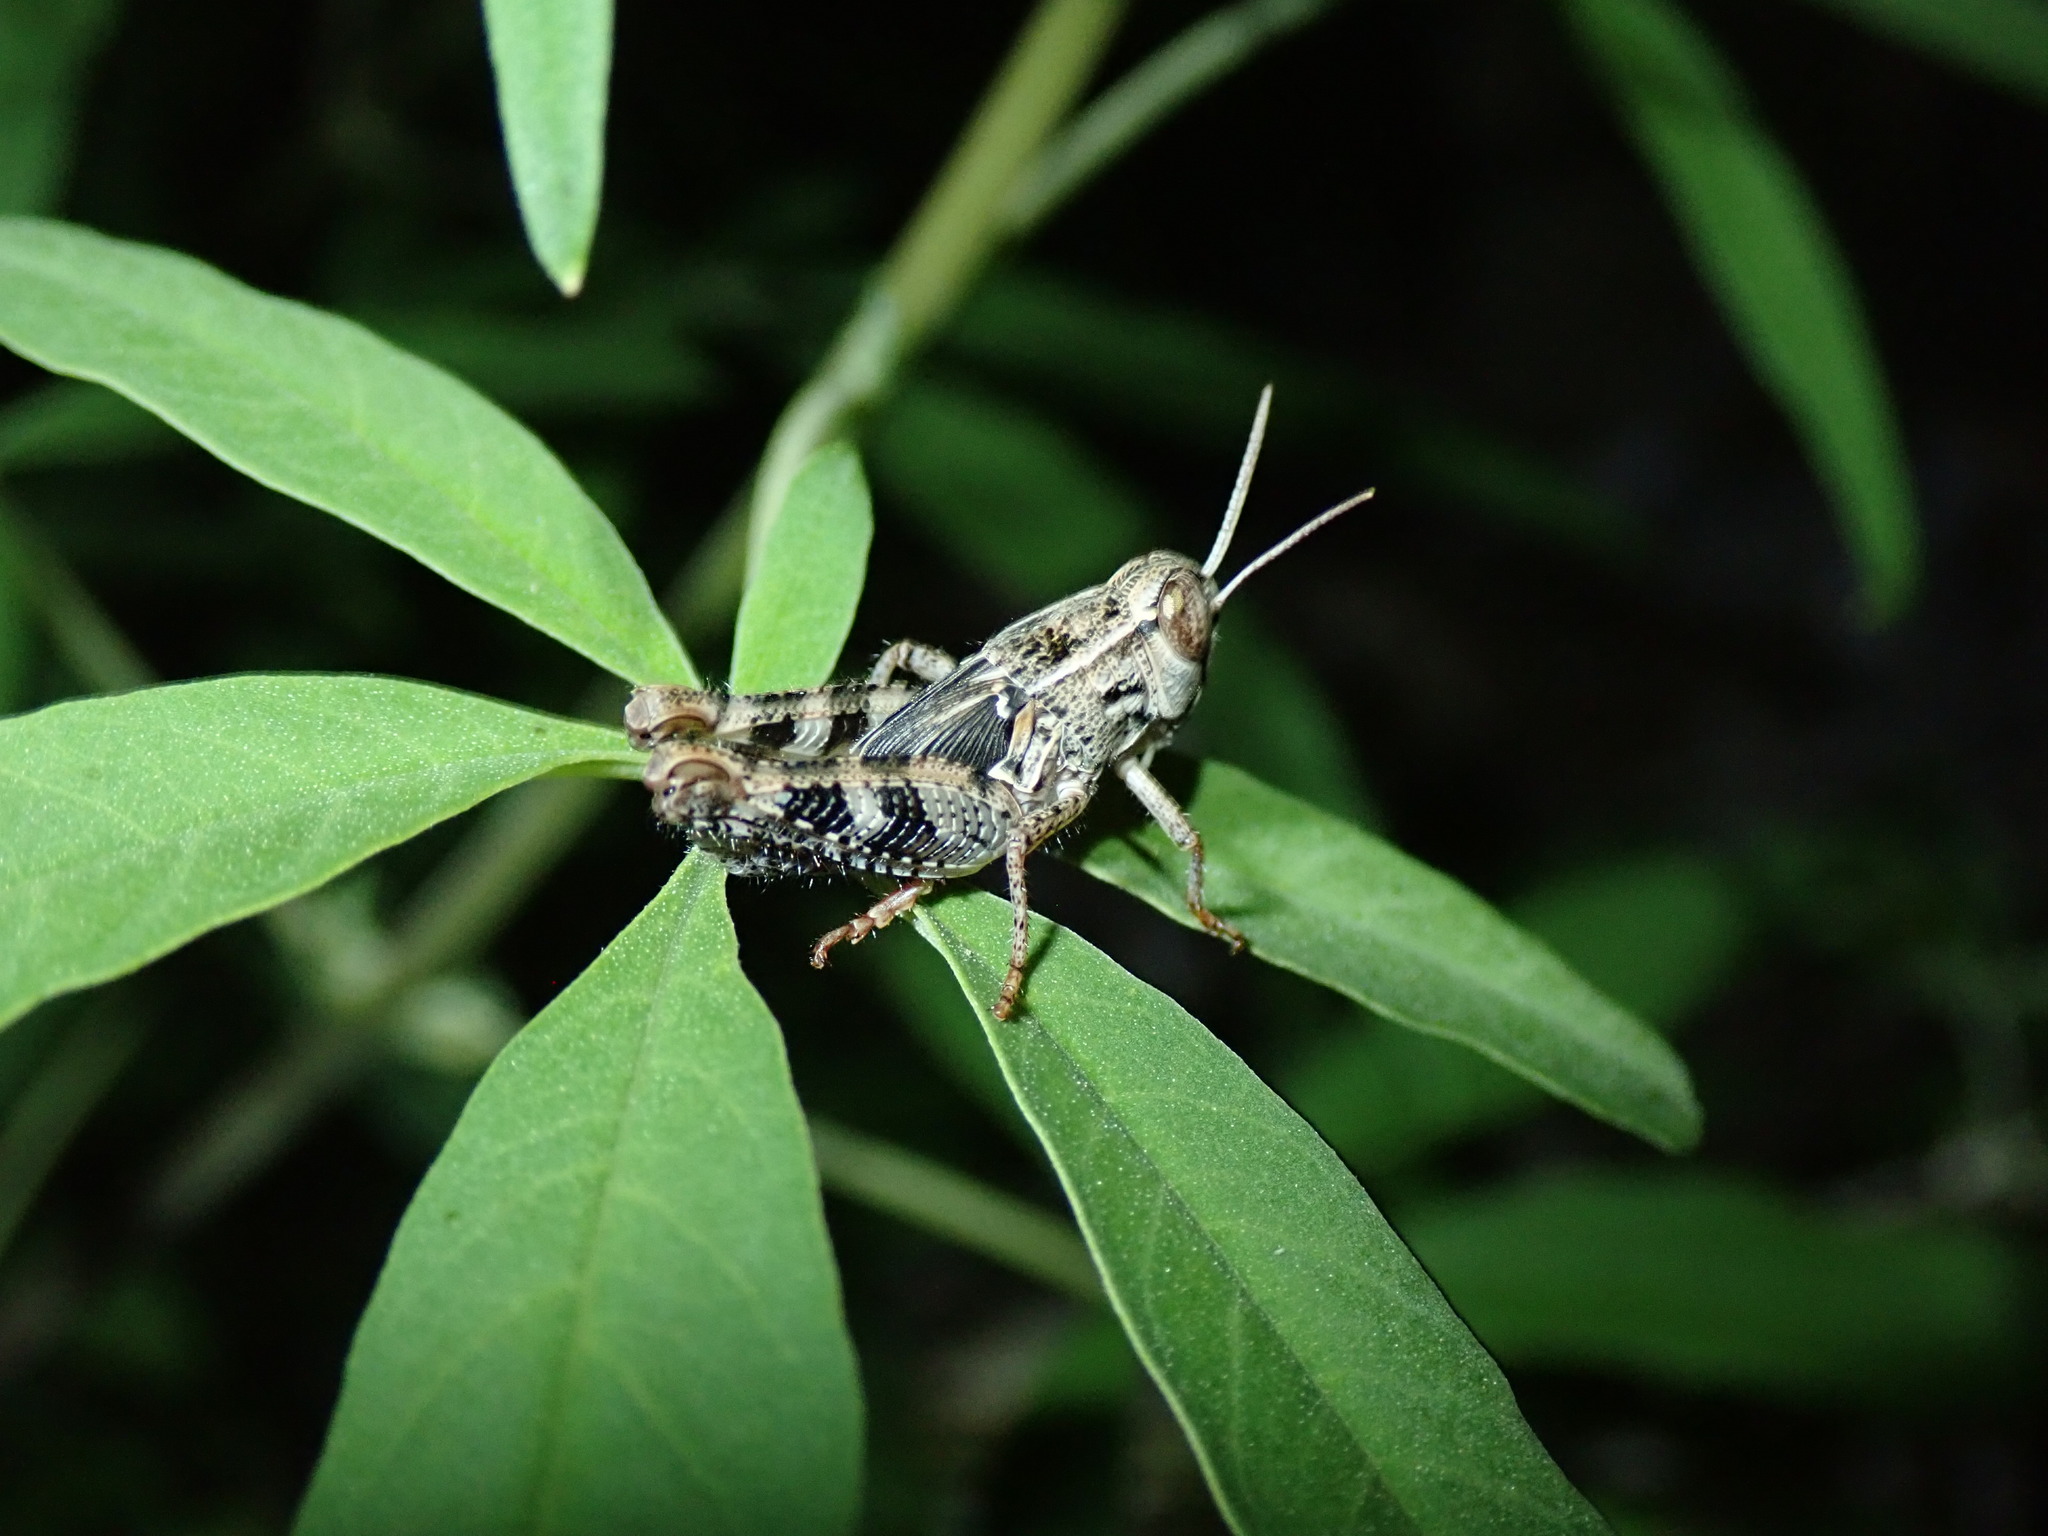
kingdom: Animalia
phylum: Arthropoda
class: Insecta
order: Orthoptera
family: Acrididae
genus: Calliptamus
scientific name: Calliptamus italicus
